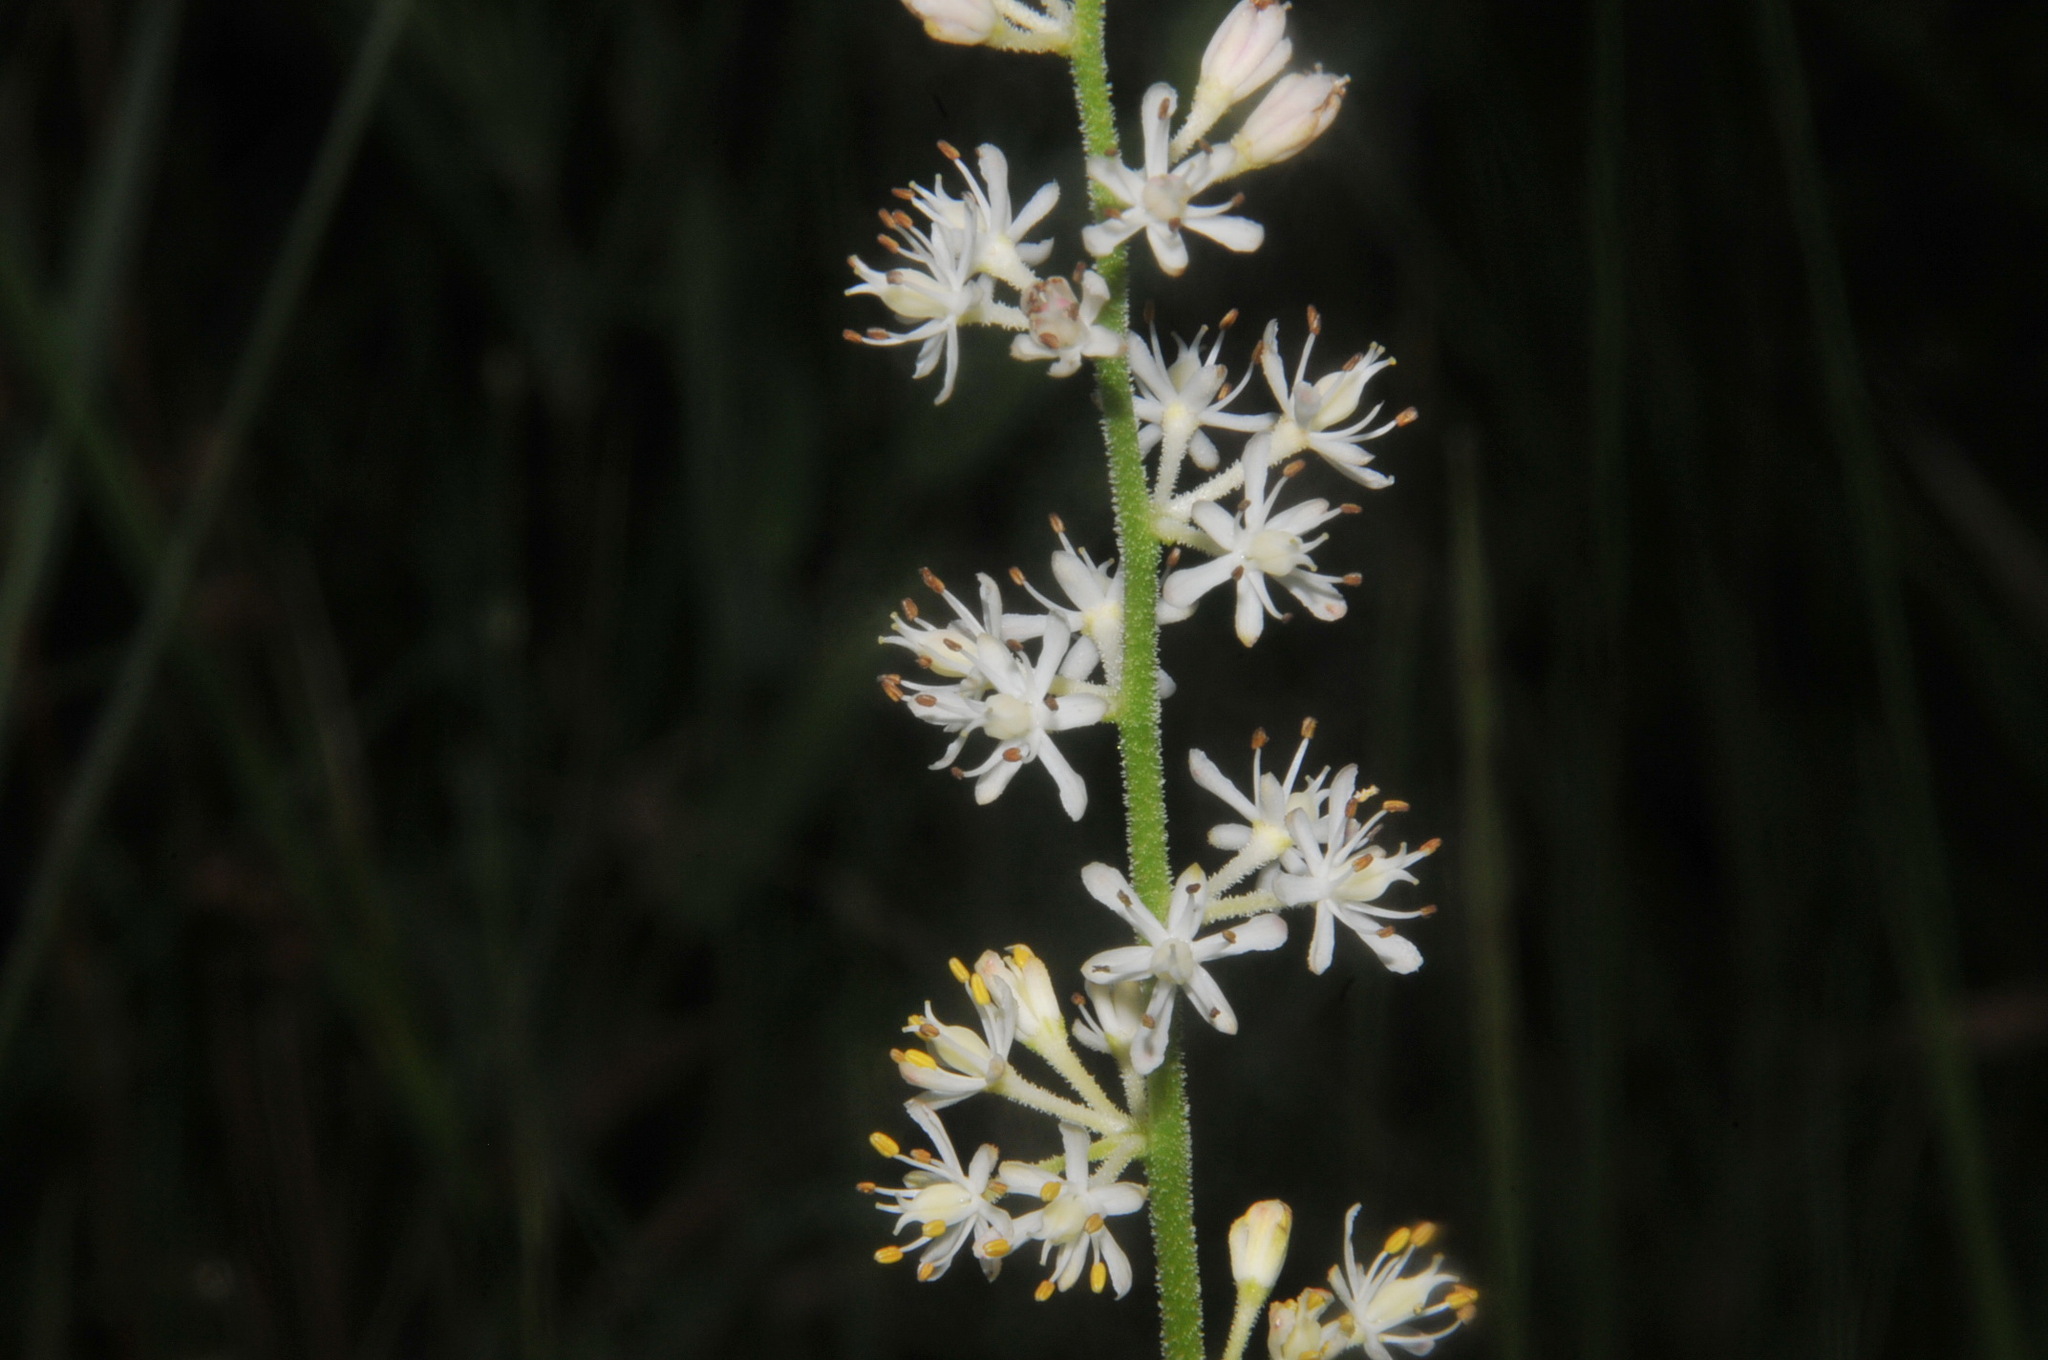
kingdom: Plantae
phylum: Tracheophyta
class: Liliopsida
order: Alismatales
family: Tofieldiaceae
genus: Triantha
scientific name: Triantha racemosa
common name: Coastal false asphodel
